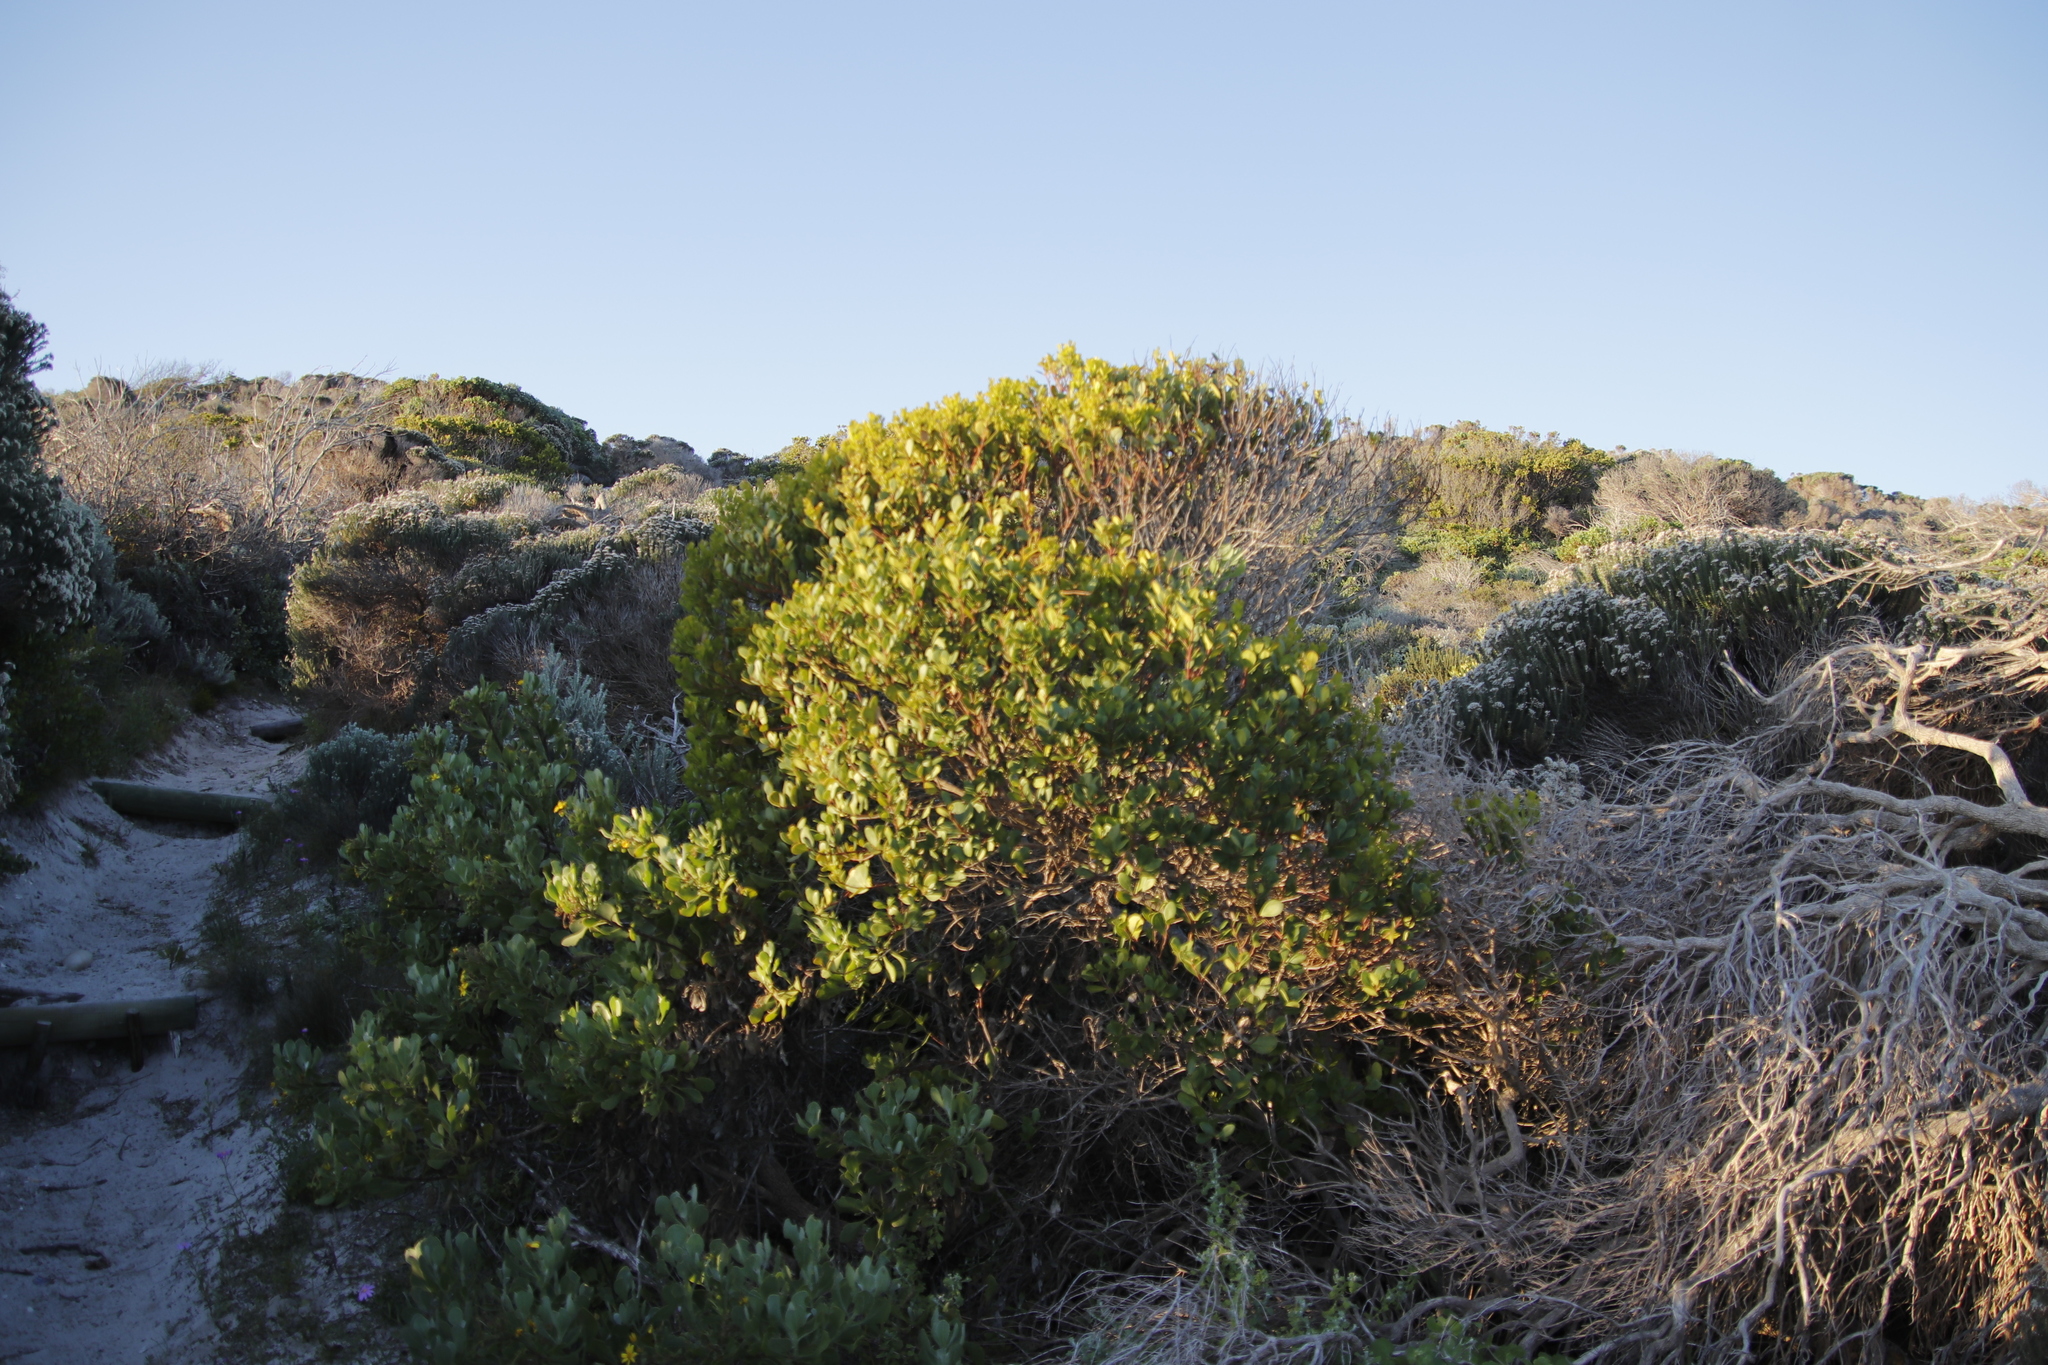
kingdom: Plantae
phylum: Tracheophyta
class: Magnoliopsida
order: Ericales
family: Ebenaceae
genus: Euclea
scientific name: Euclea racemosa
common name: Dune guarri
